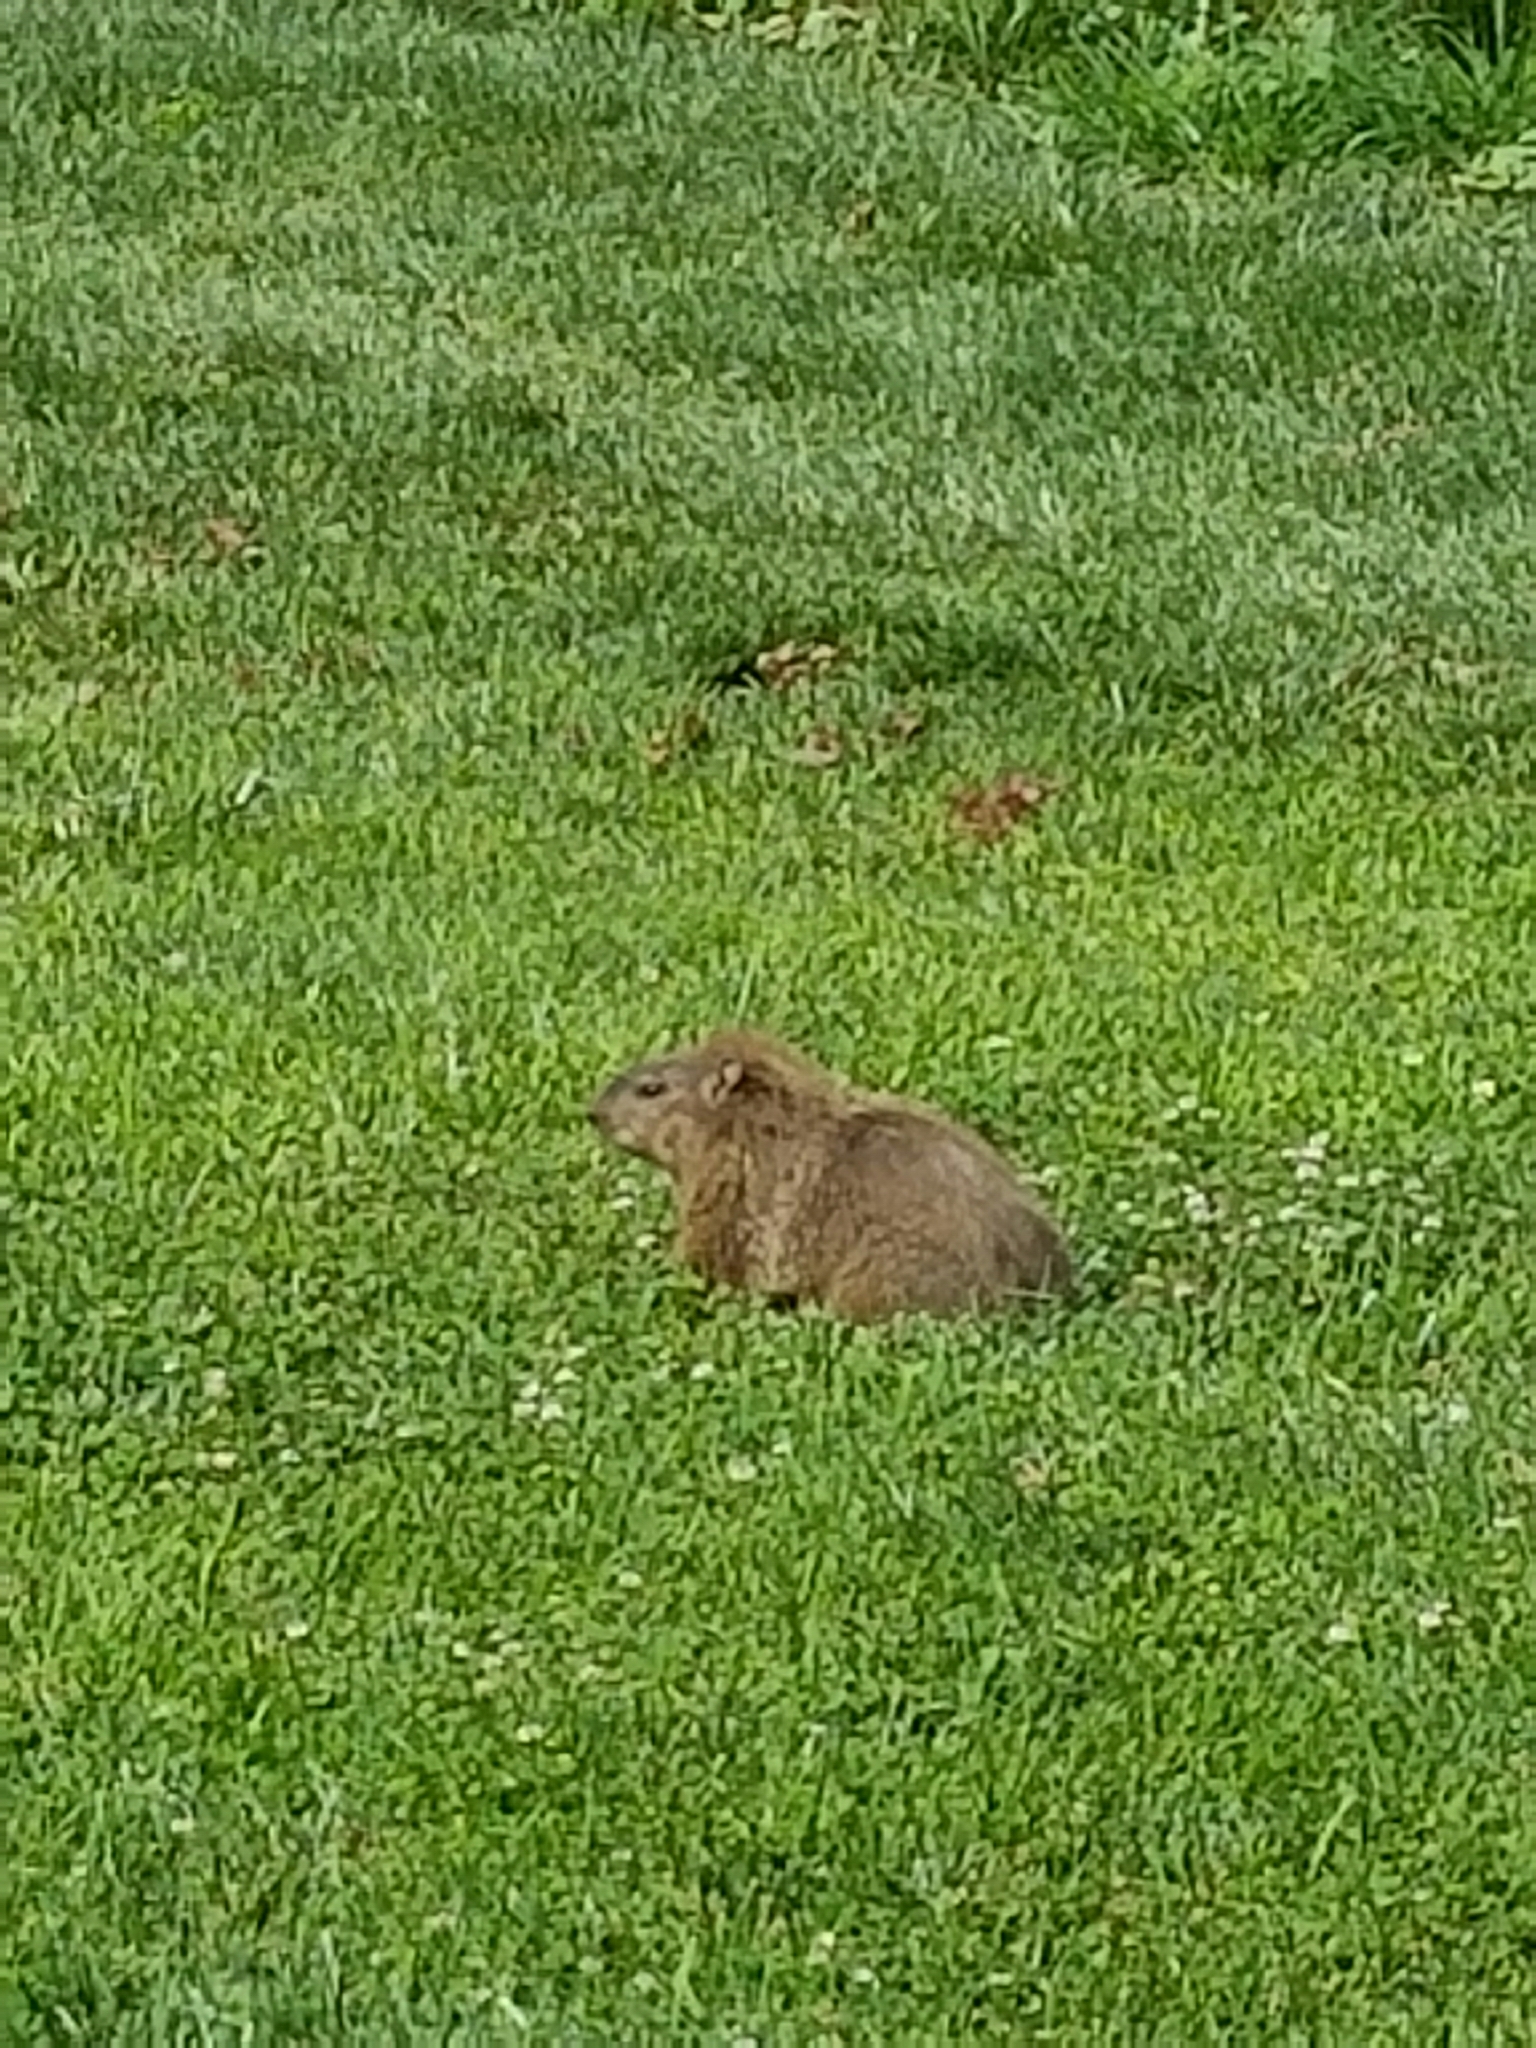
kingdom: Animalia
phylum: Chordata
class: Mammalia
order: Rodentia
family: Sciuridae
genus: Marmota
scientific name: Marmota monax
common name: Groundhog
